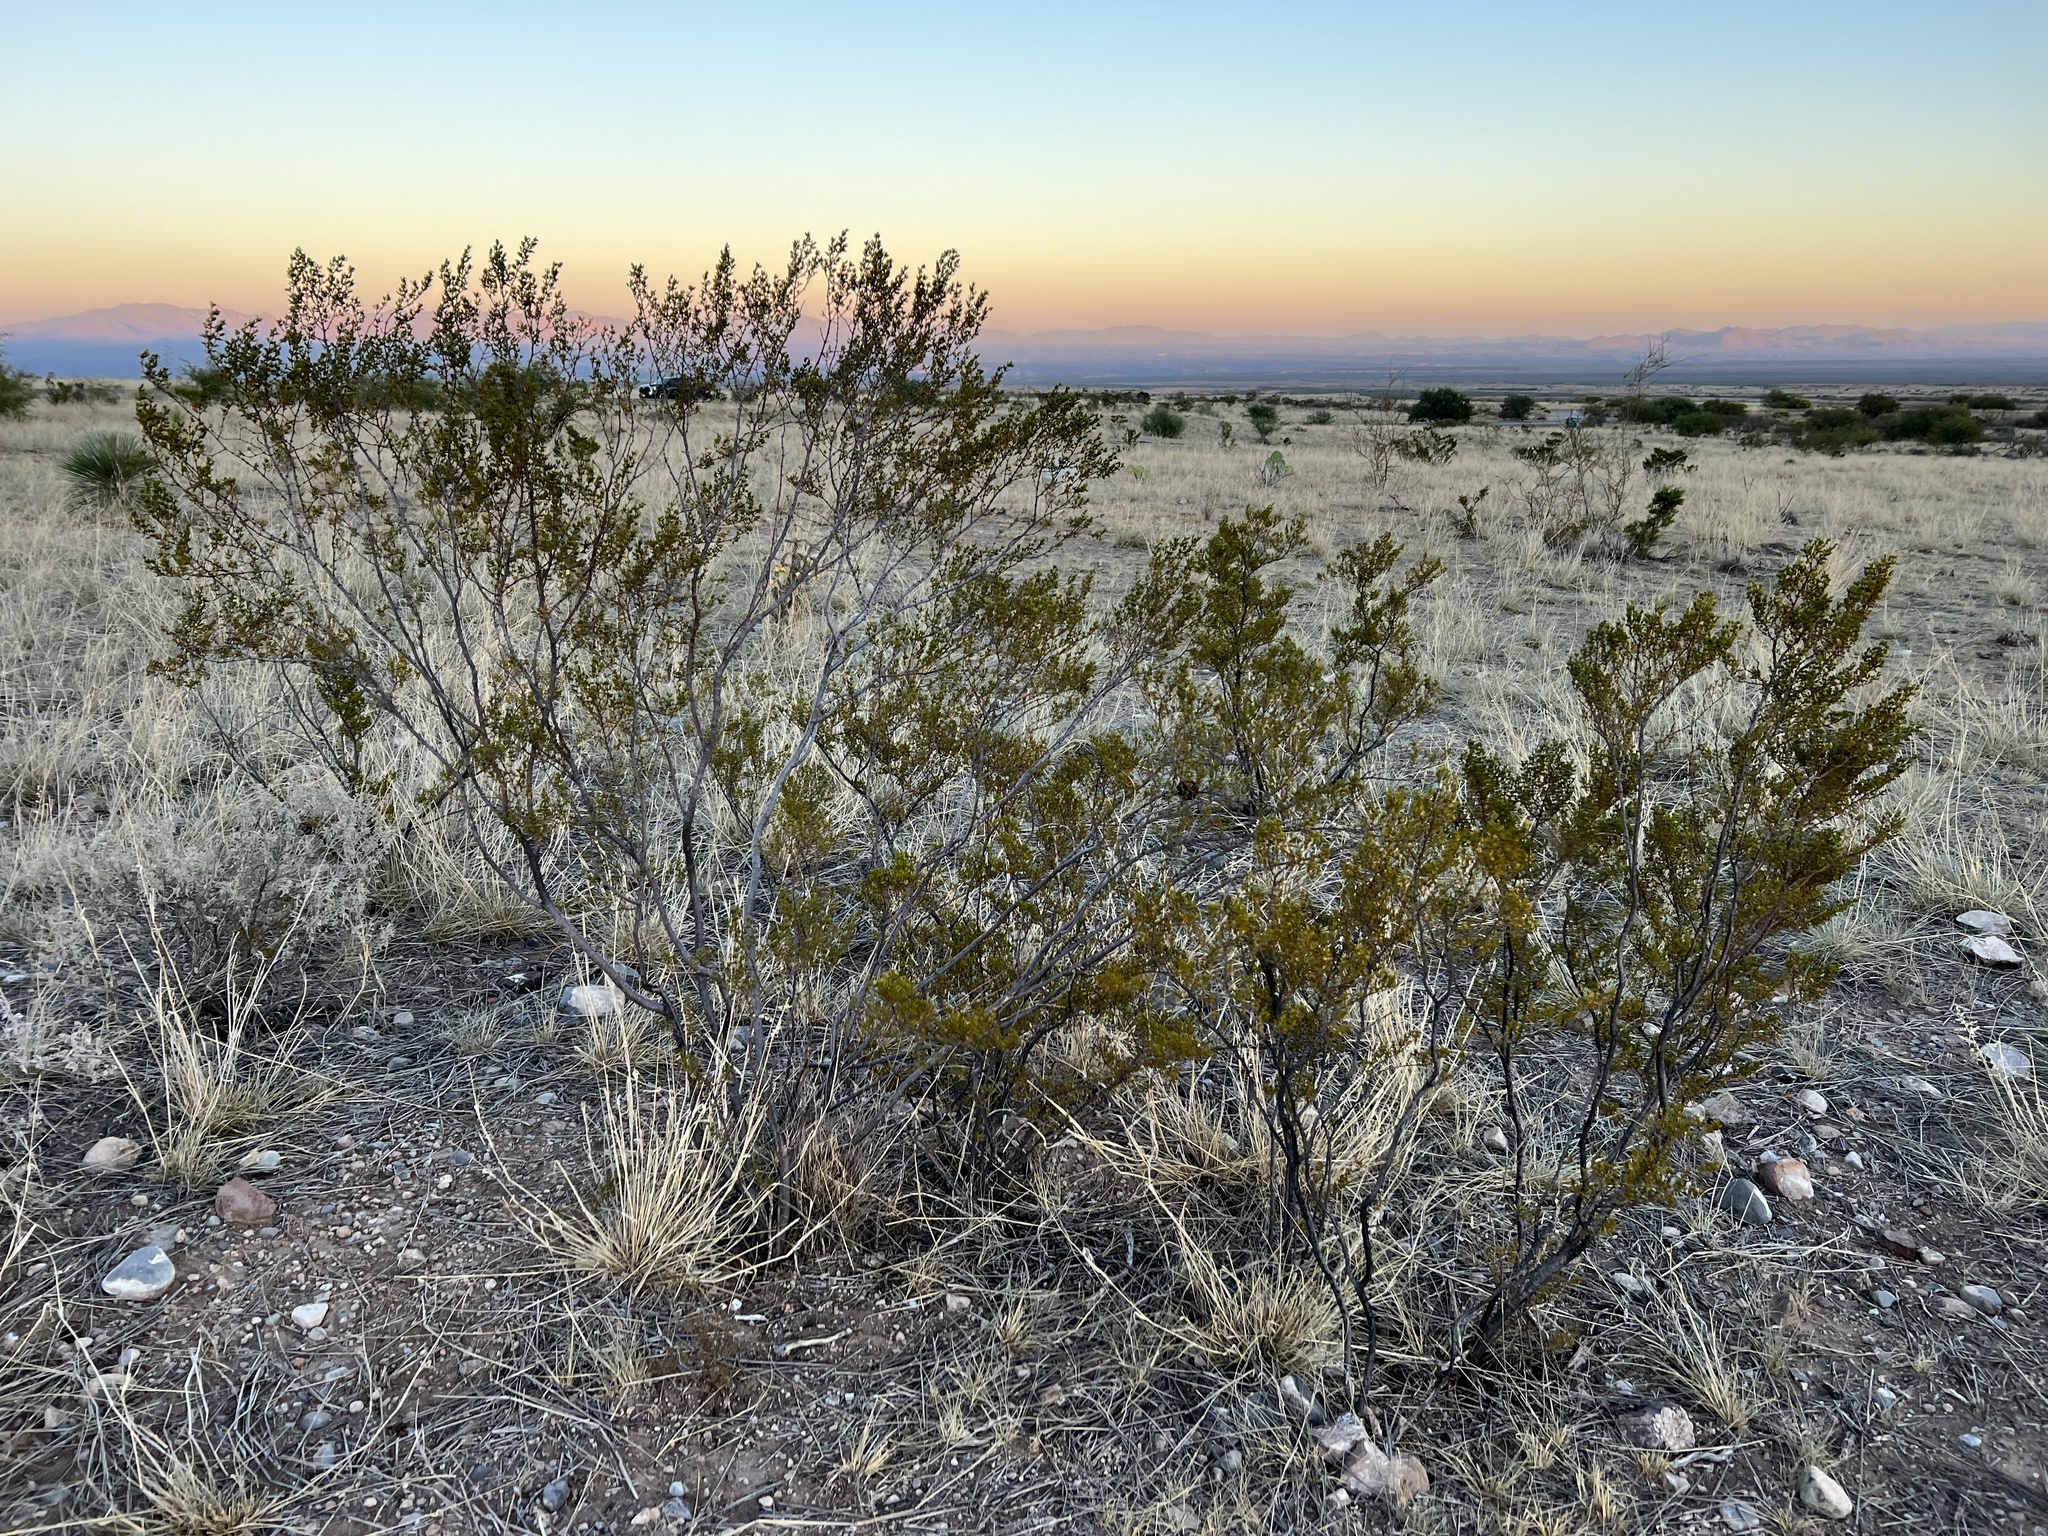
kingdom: Plantae
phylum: Tracheophyta
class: Magnoliopsida
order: Zygophyllales
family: Zygophyllaceae
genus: Larrea
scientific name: Larrea tridentata
